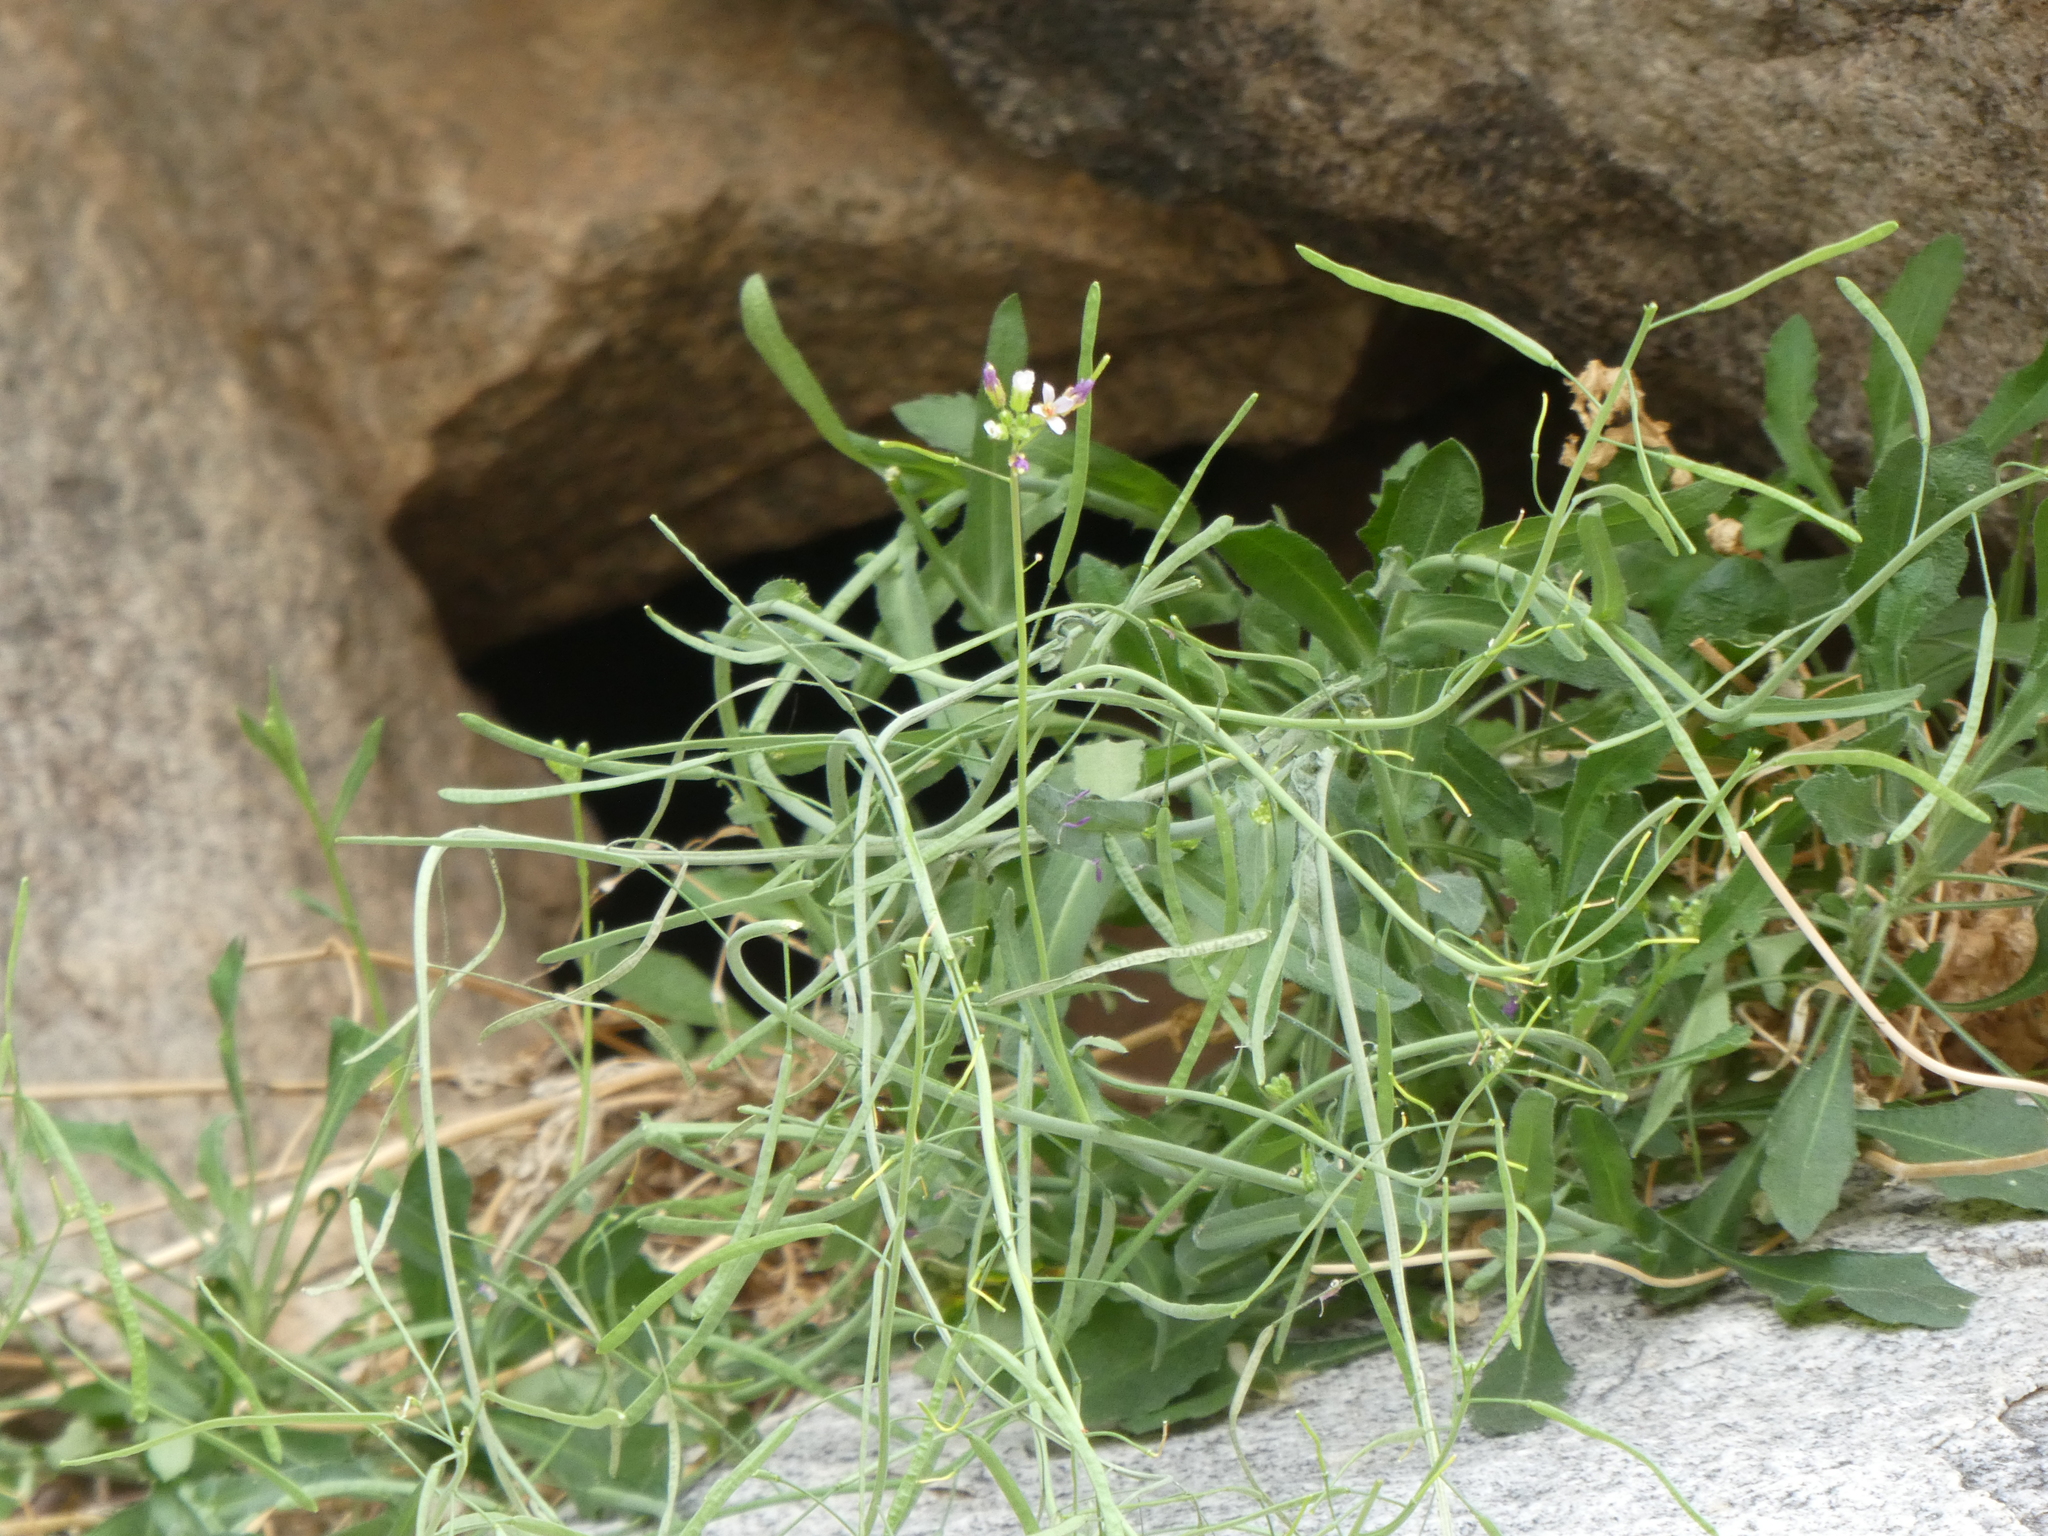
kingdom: Plantae
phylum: Tracheophyta
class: Magnoliopsida
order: Brassicales
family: Brassicaceae
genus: Boechera
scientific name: Boechera perennans
